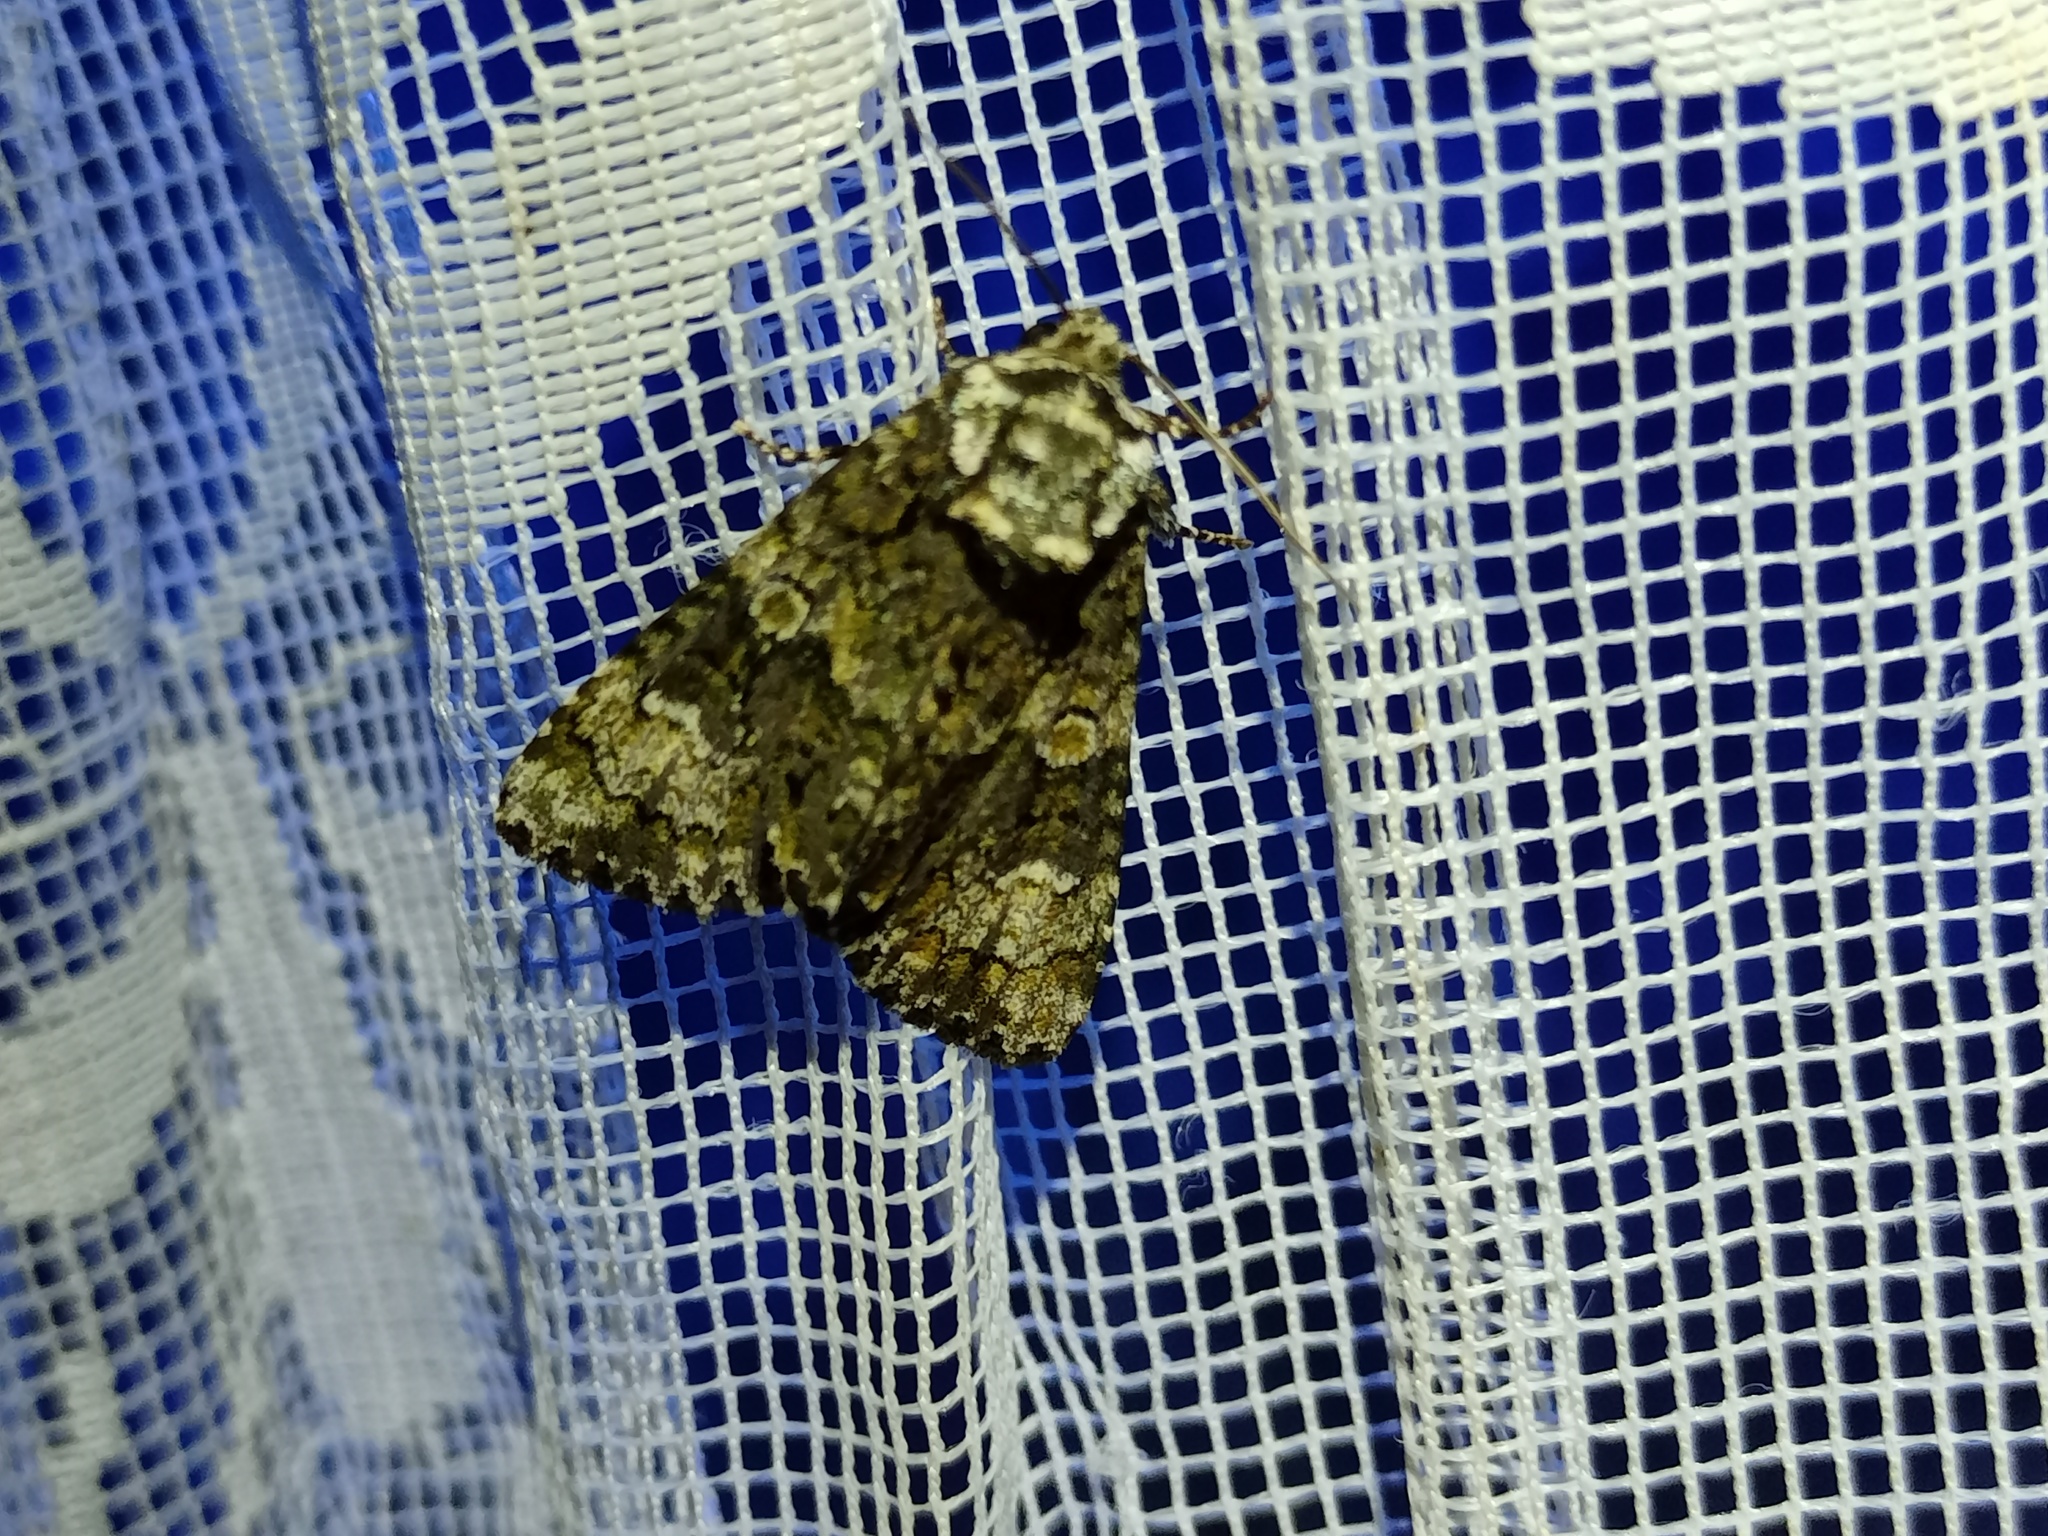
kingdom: Animalia
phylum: Arthropoda
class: Insecta
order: Lepidoptera
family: Noctuidae
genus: Craniophora
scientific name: Craniophora ligustri
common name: Coronet
